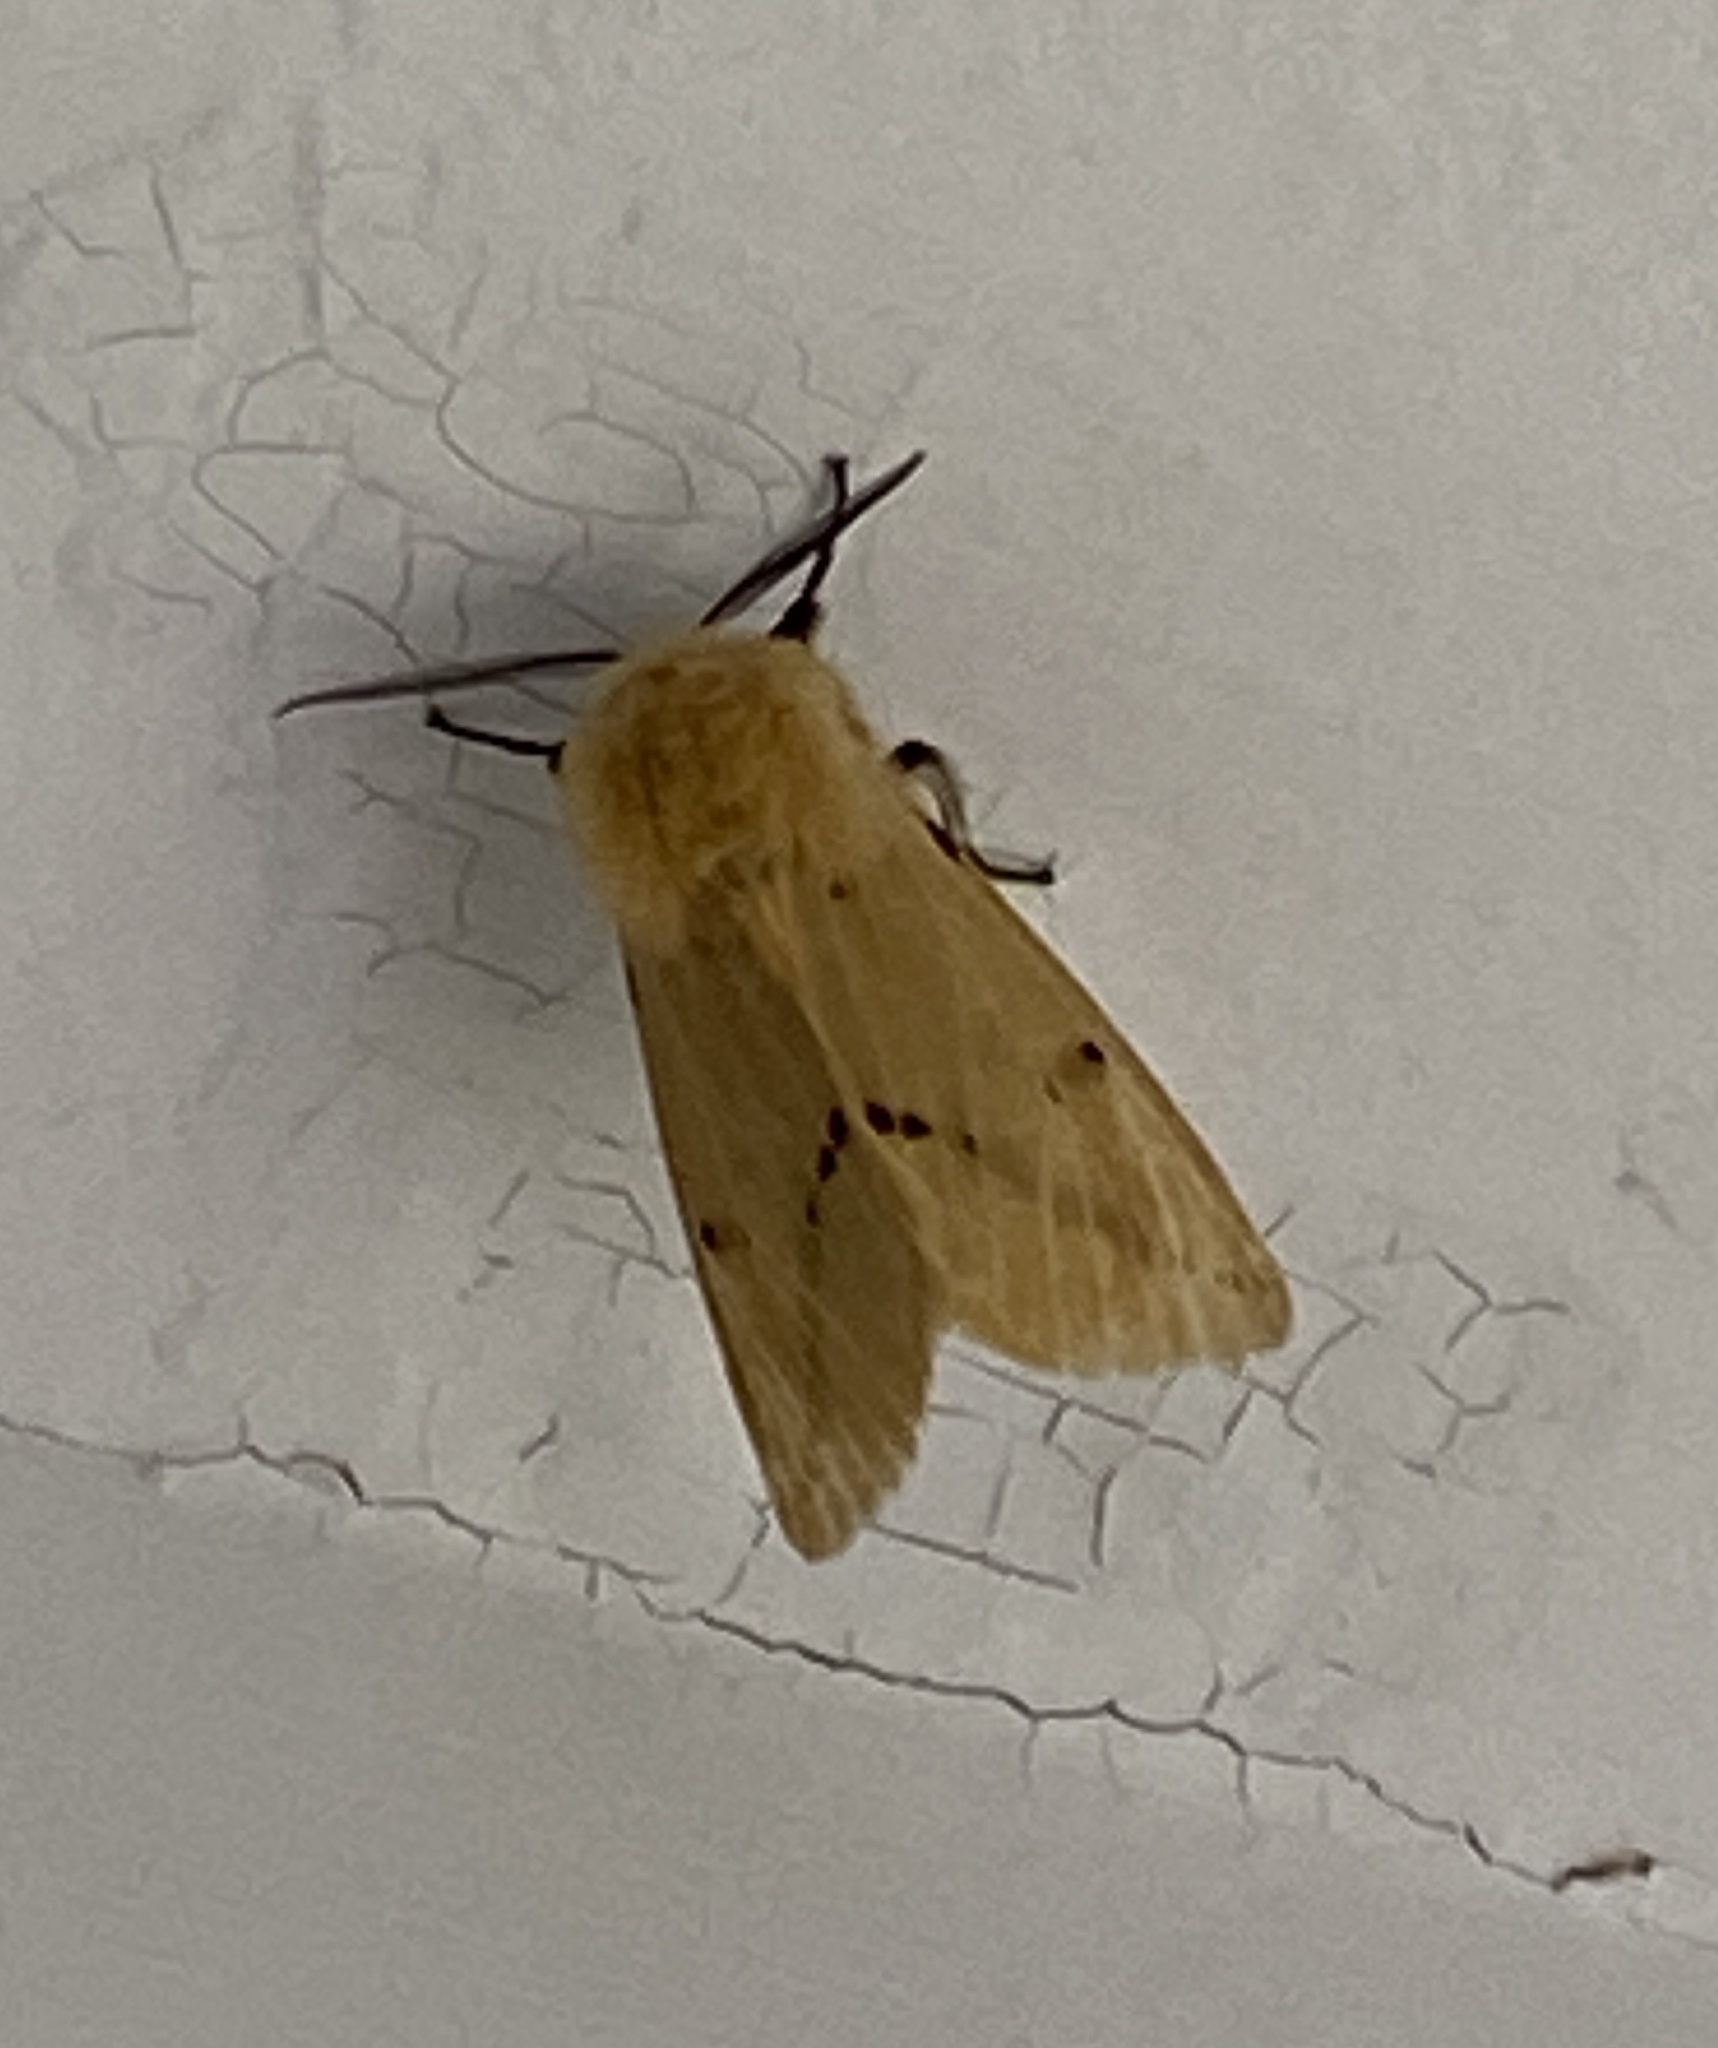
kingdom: Animalia
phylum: Arthropoda
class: Insecta
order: Lepidoptera
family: Erebidae
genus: Spilarctia
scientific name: Spilarctia lutea
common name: Buff ermine
